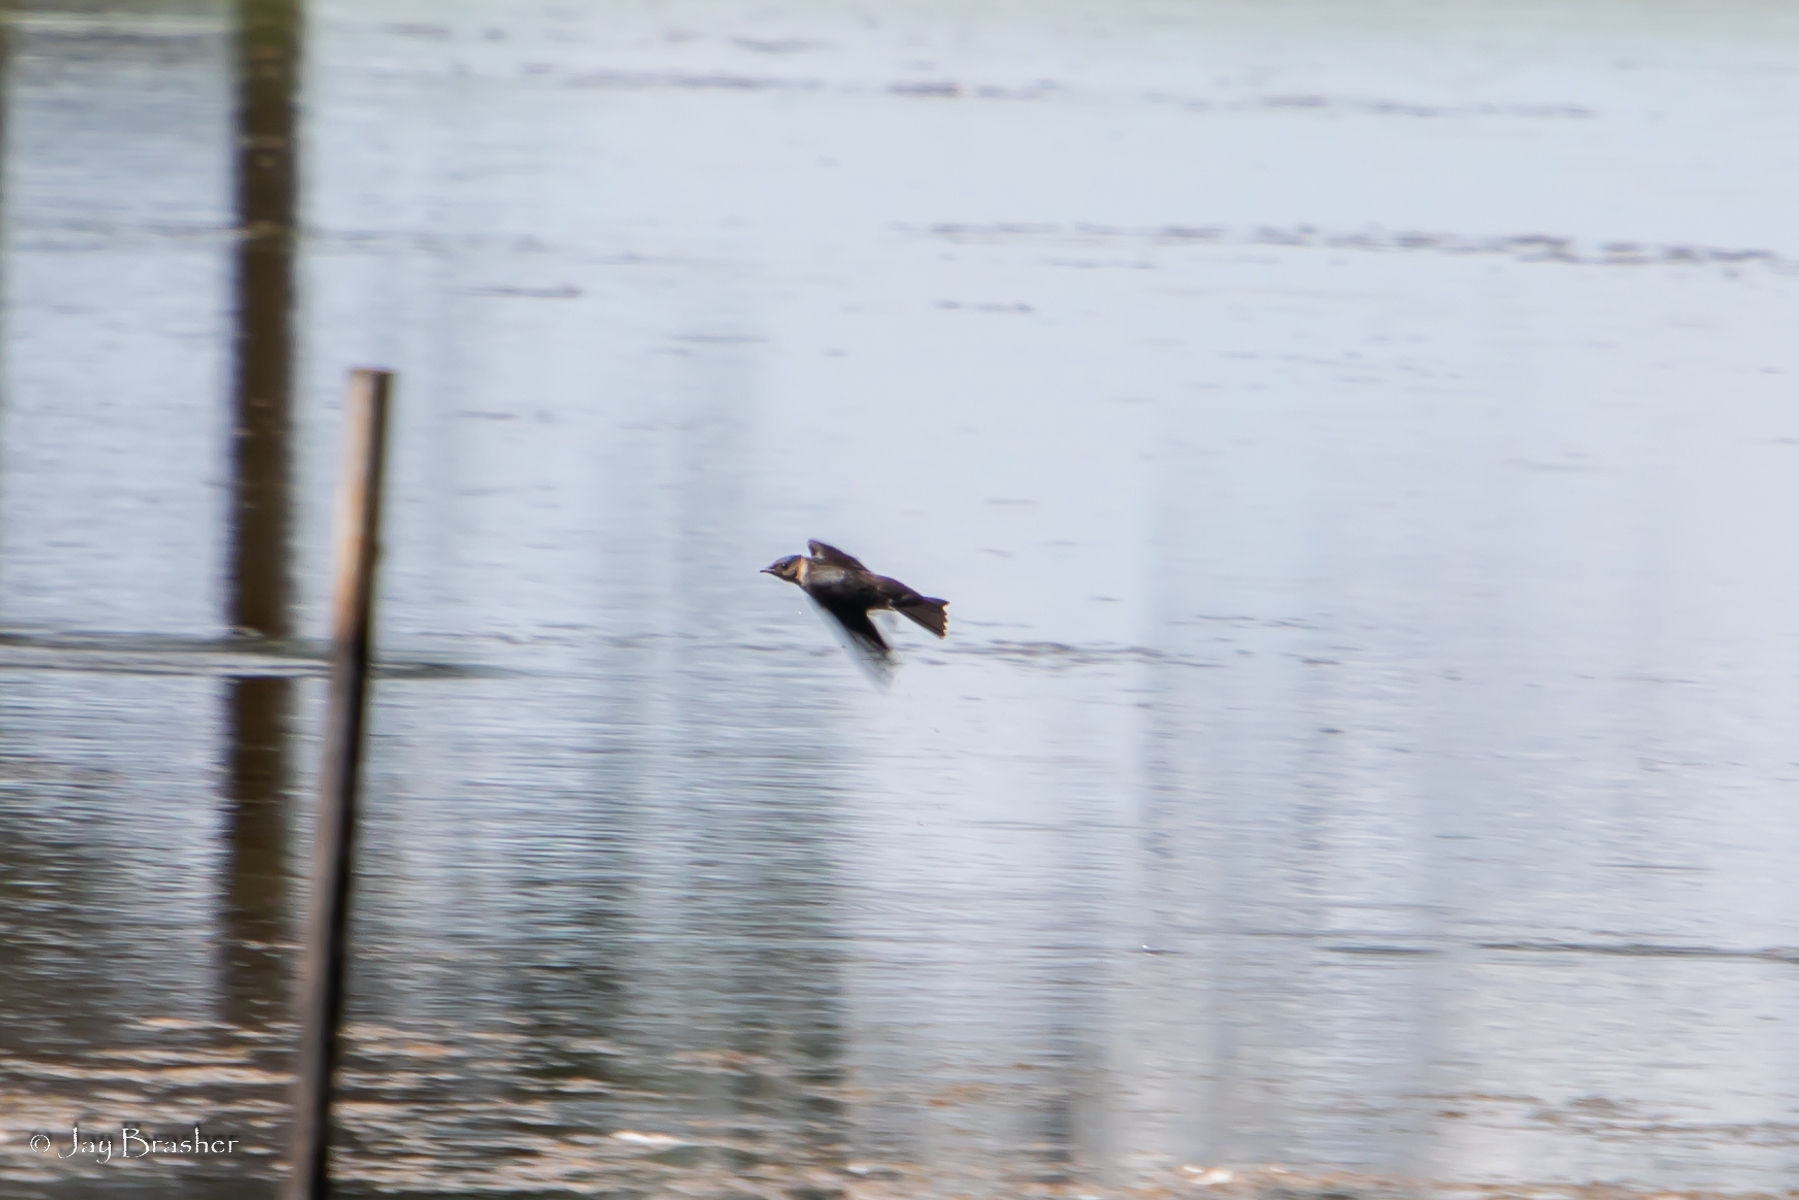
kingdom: Animalia
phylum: Chordata
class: Aves
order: Passeriformes
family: Hirundinidae
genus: Petrochelidon
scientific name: Petrochelidon pyrrhonota
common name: American cliff swallow
